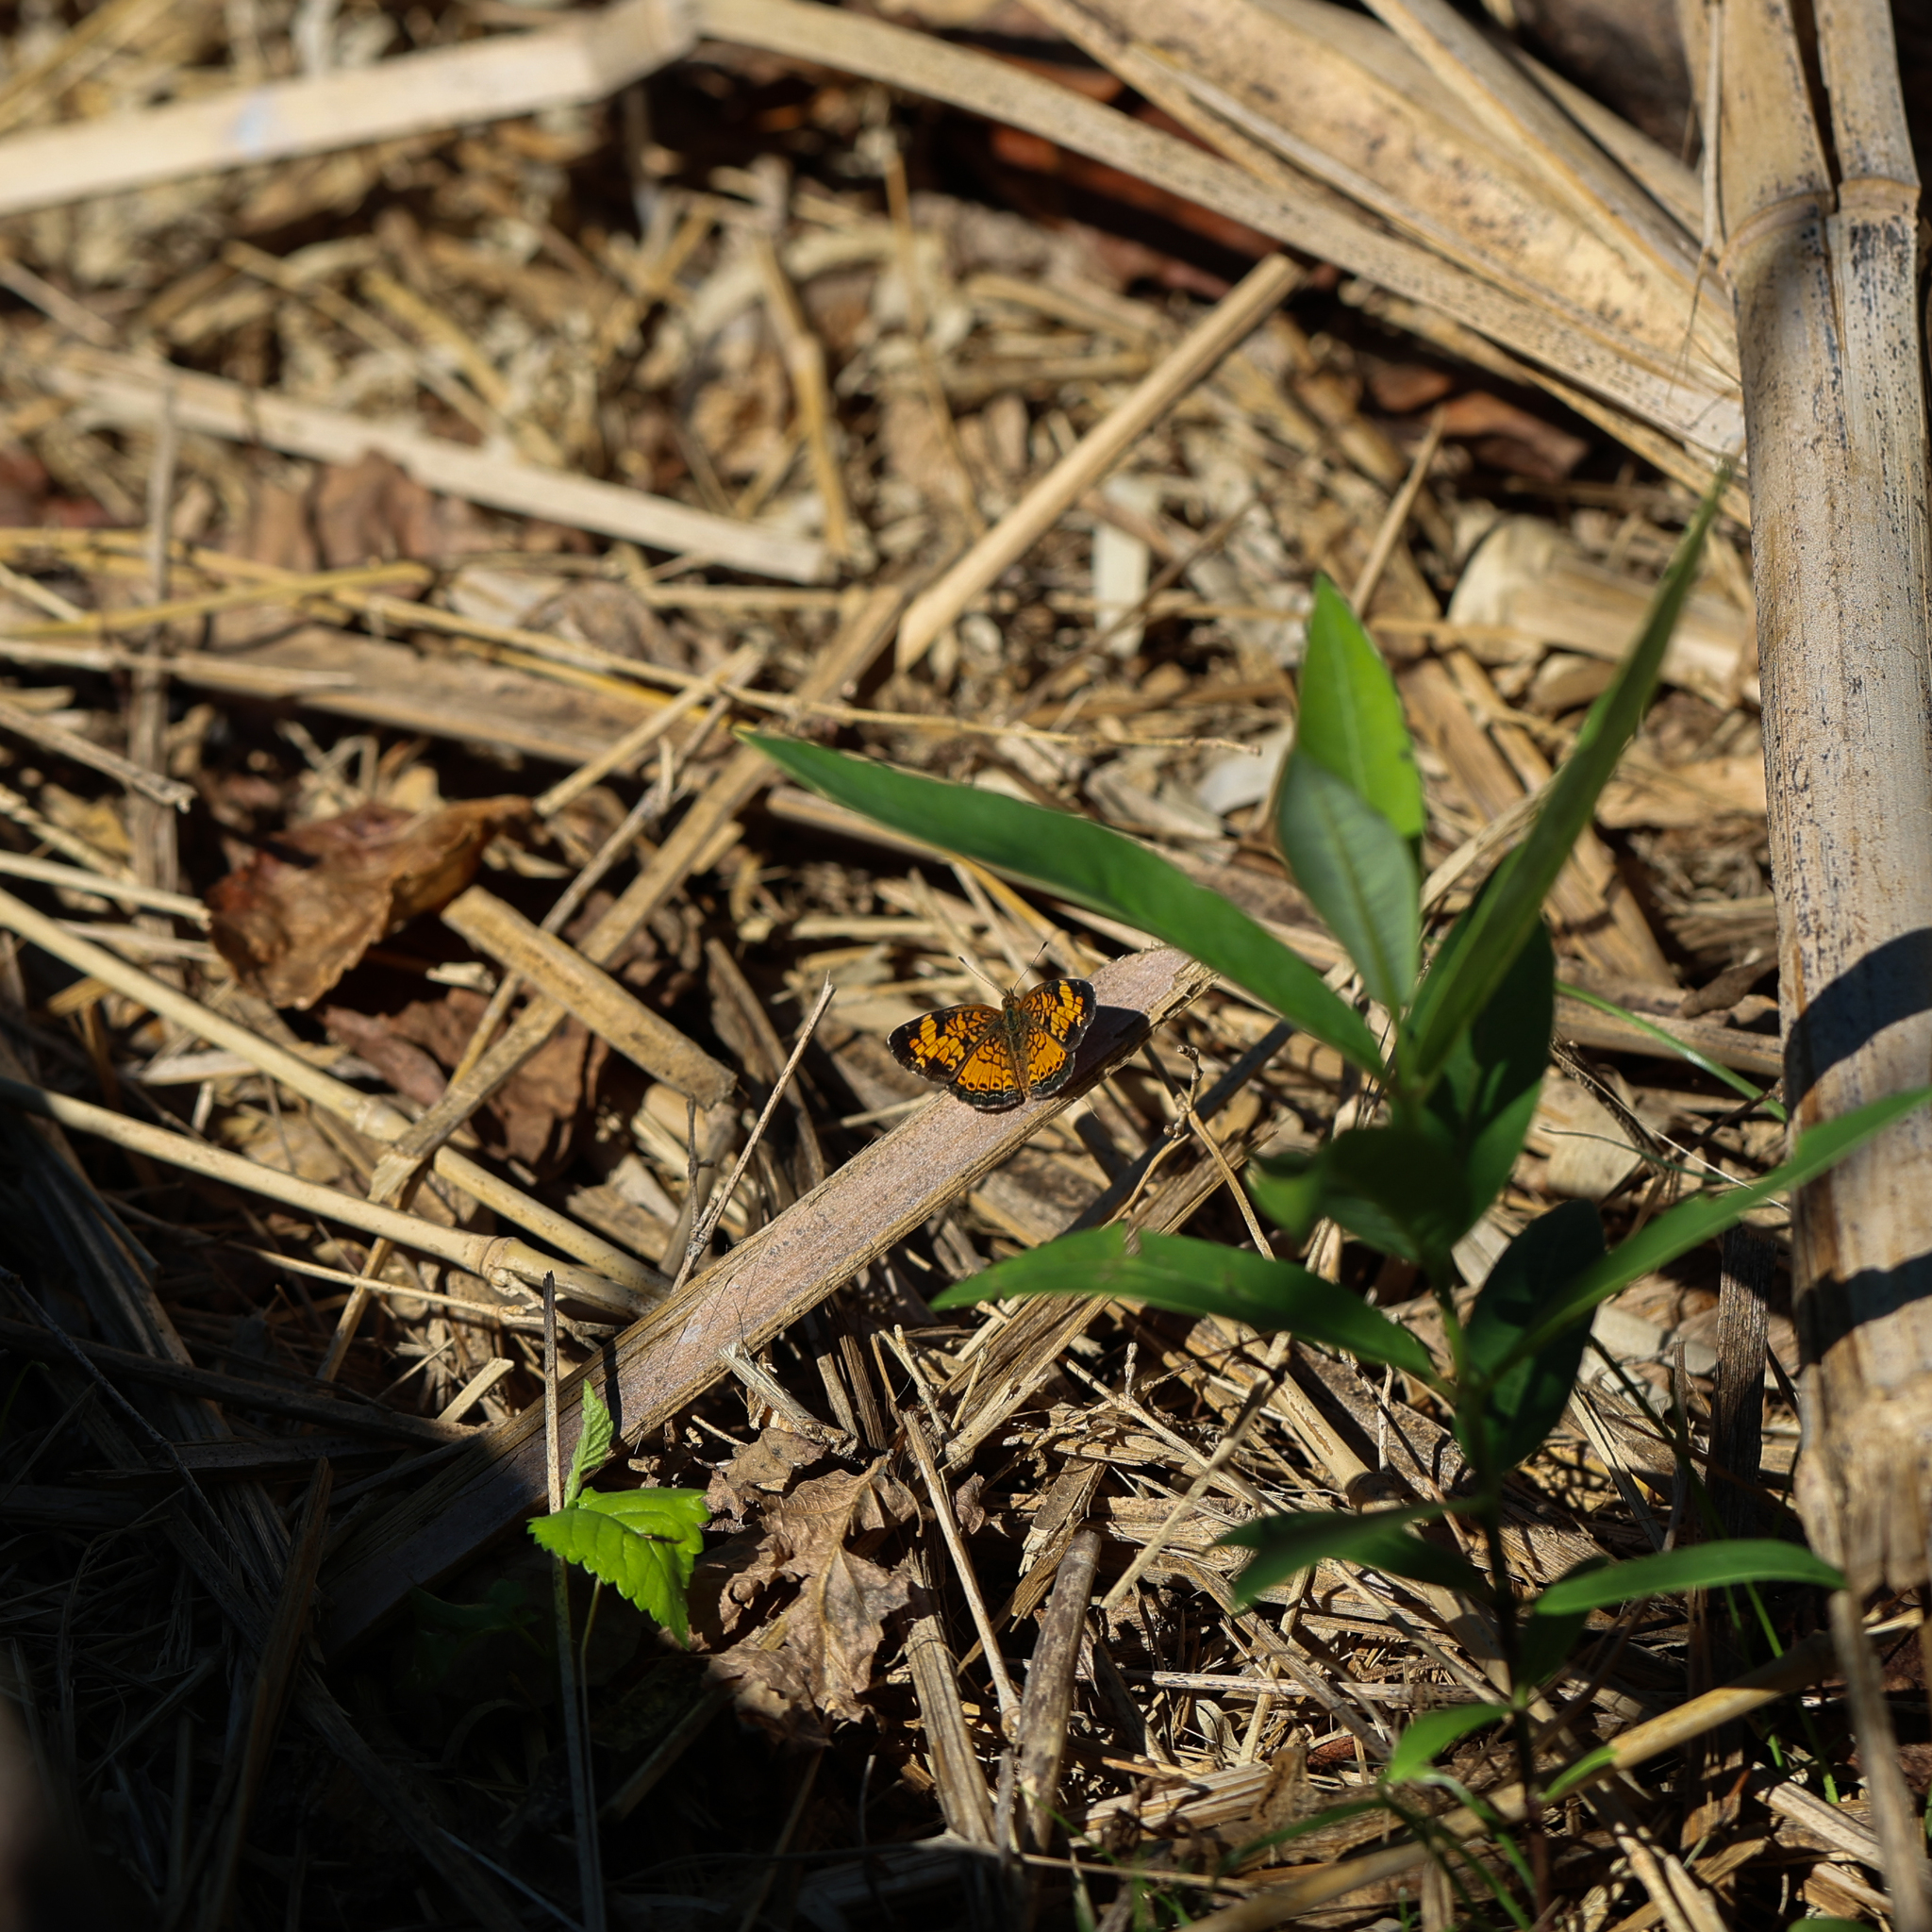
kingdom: Animalia
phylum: Arthropoda
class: Insecta
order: Lepidoptera
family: Nymphalidae
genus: Phyciodes
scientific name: Phyciodes tharos
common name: Pearl crescent
